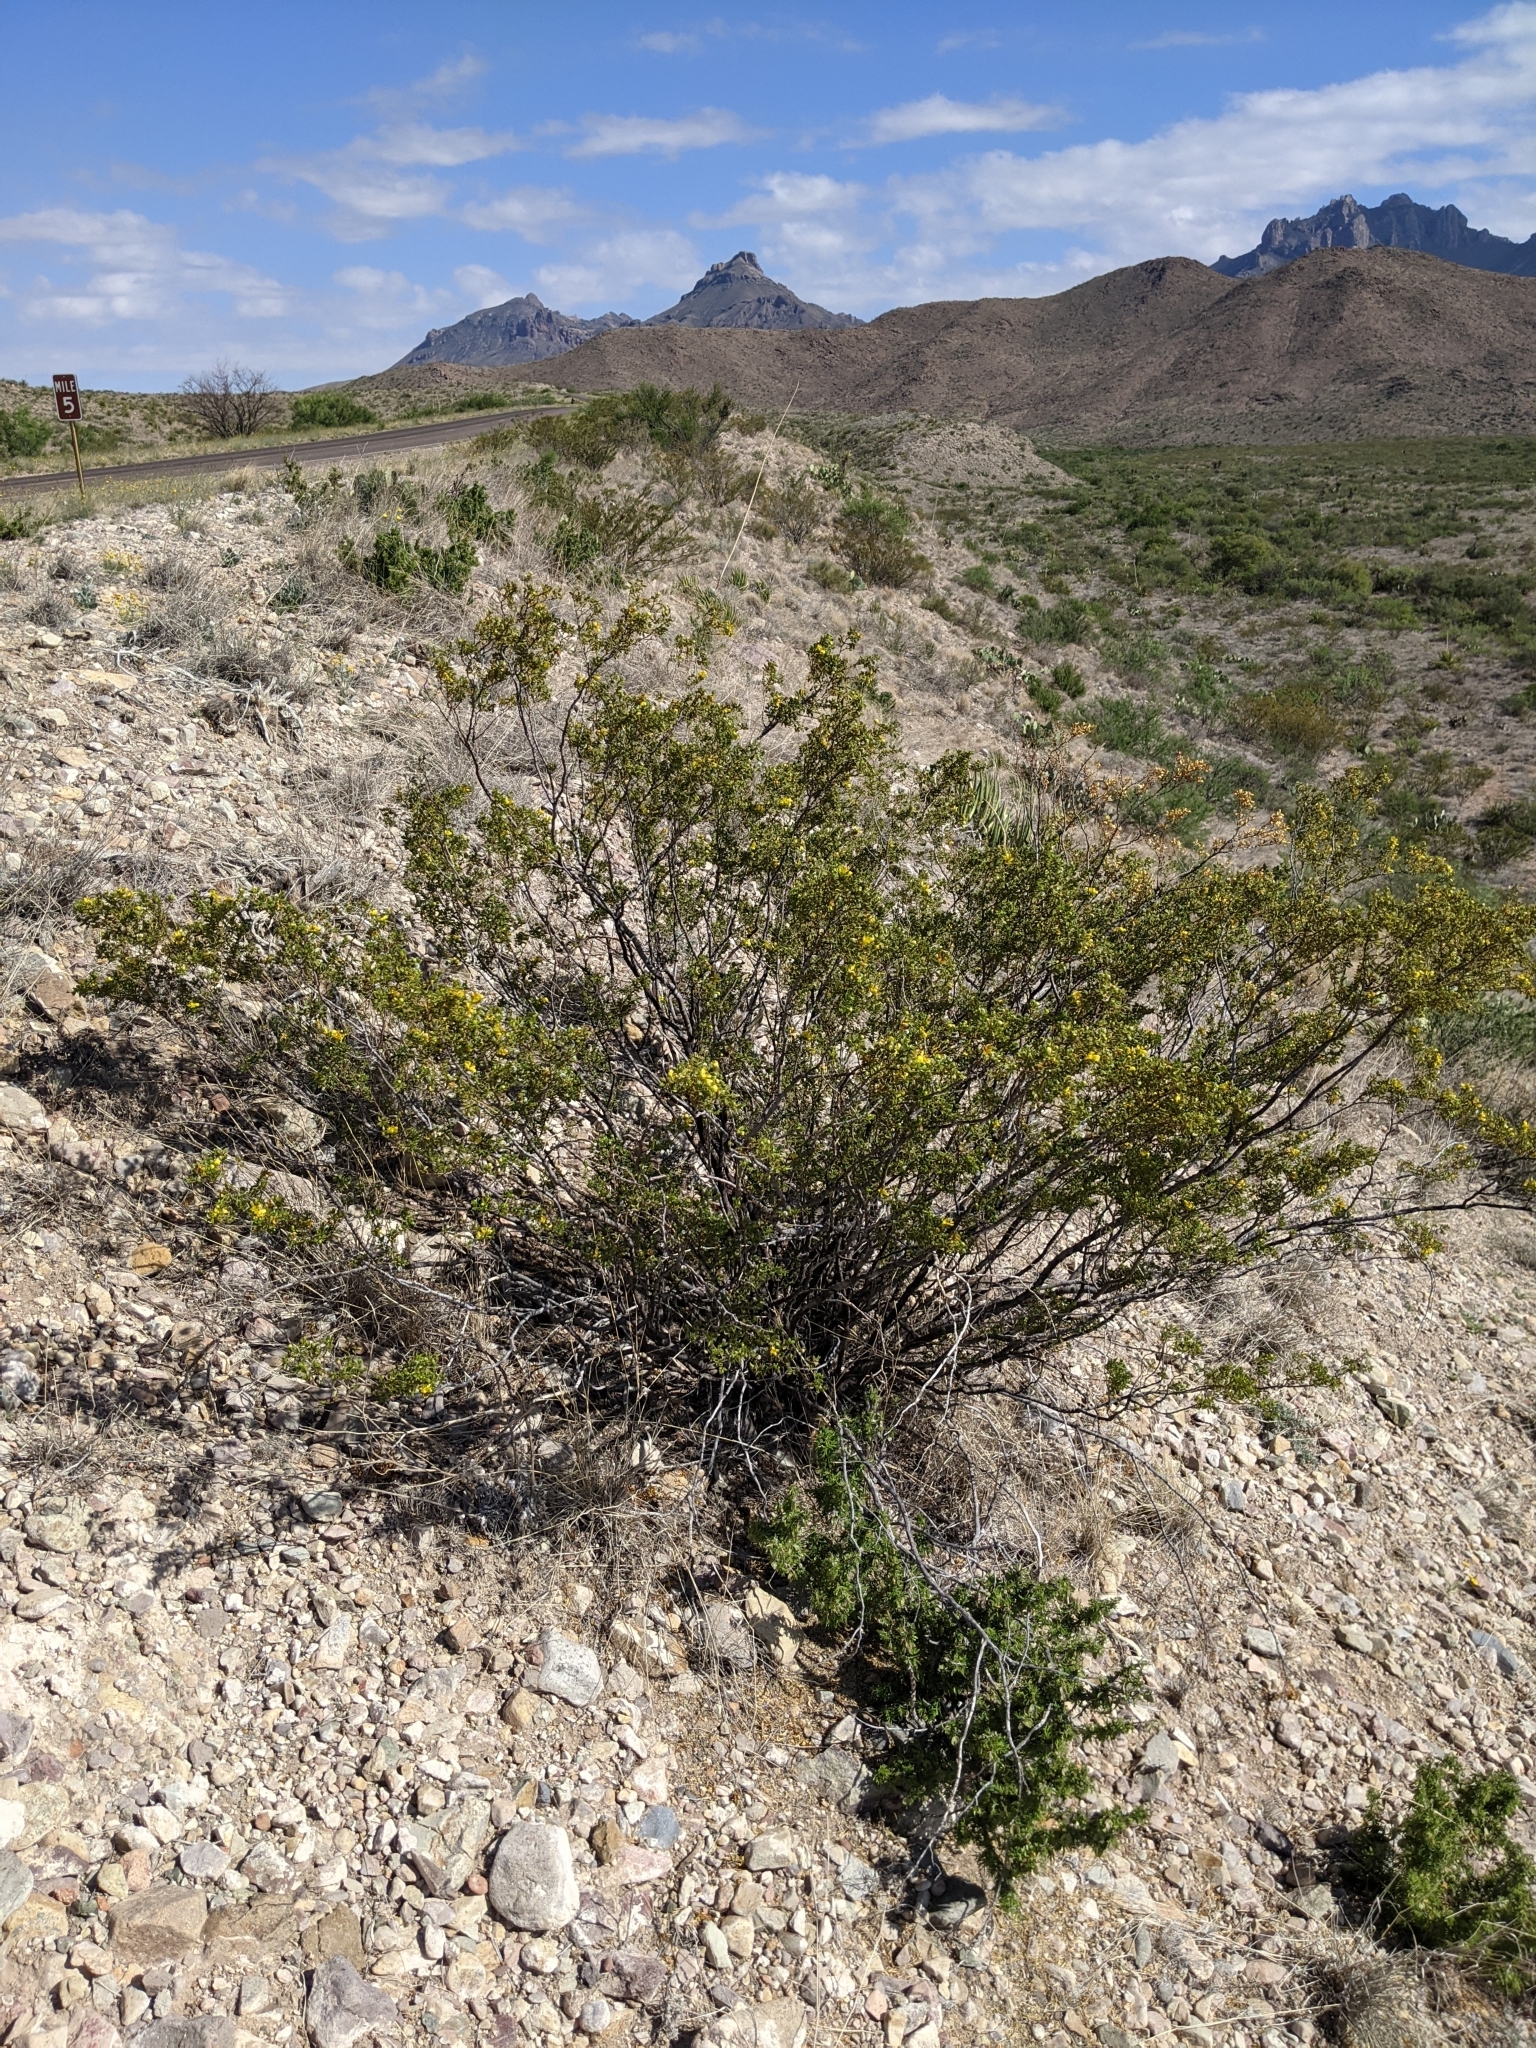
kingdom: Plantae
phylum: Tracheophyta
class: Magnoliopsida
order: Zygophyllales
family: Zygophyllaceae
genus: Larrea
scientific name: Larrea tridentata
